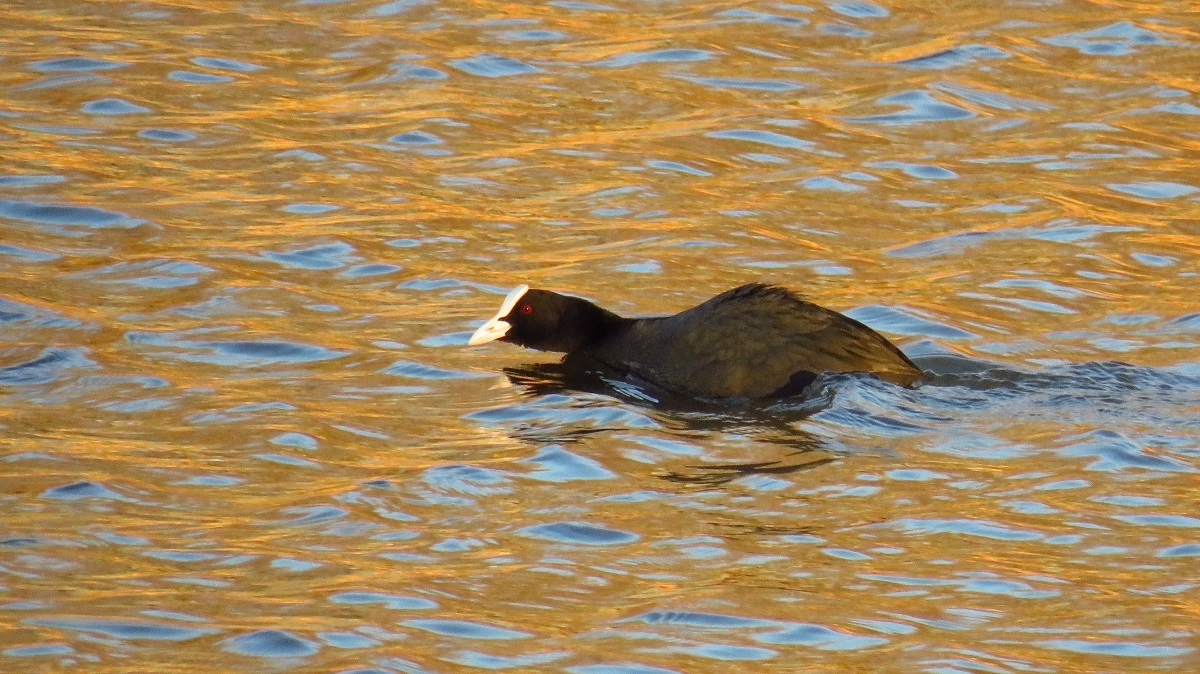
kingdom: Animalia
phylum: Chordata
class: Aves
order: Gruiformes
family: Rallidae
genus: Fulica
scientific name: Fulica atra
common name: Eurasian coot
